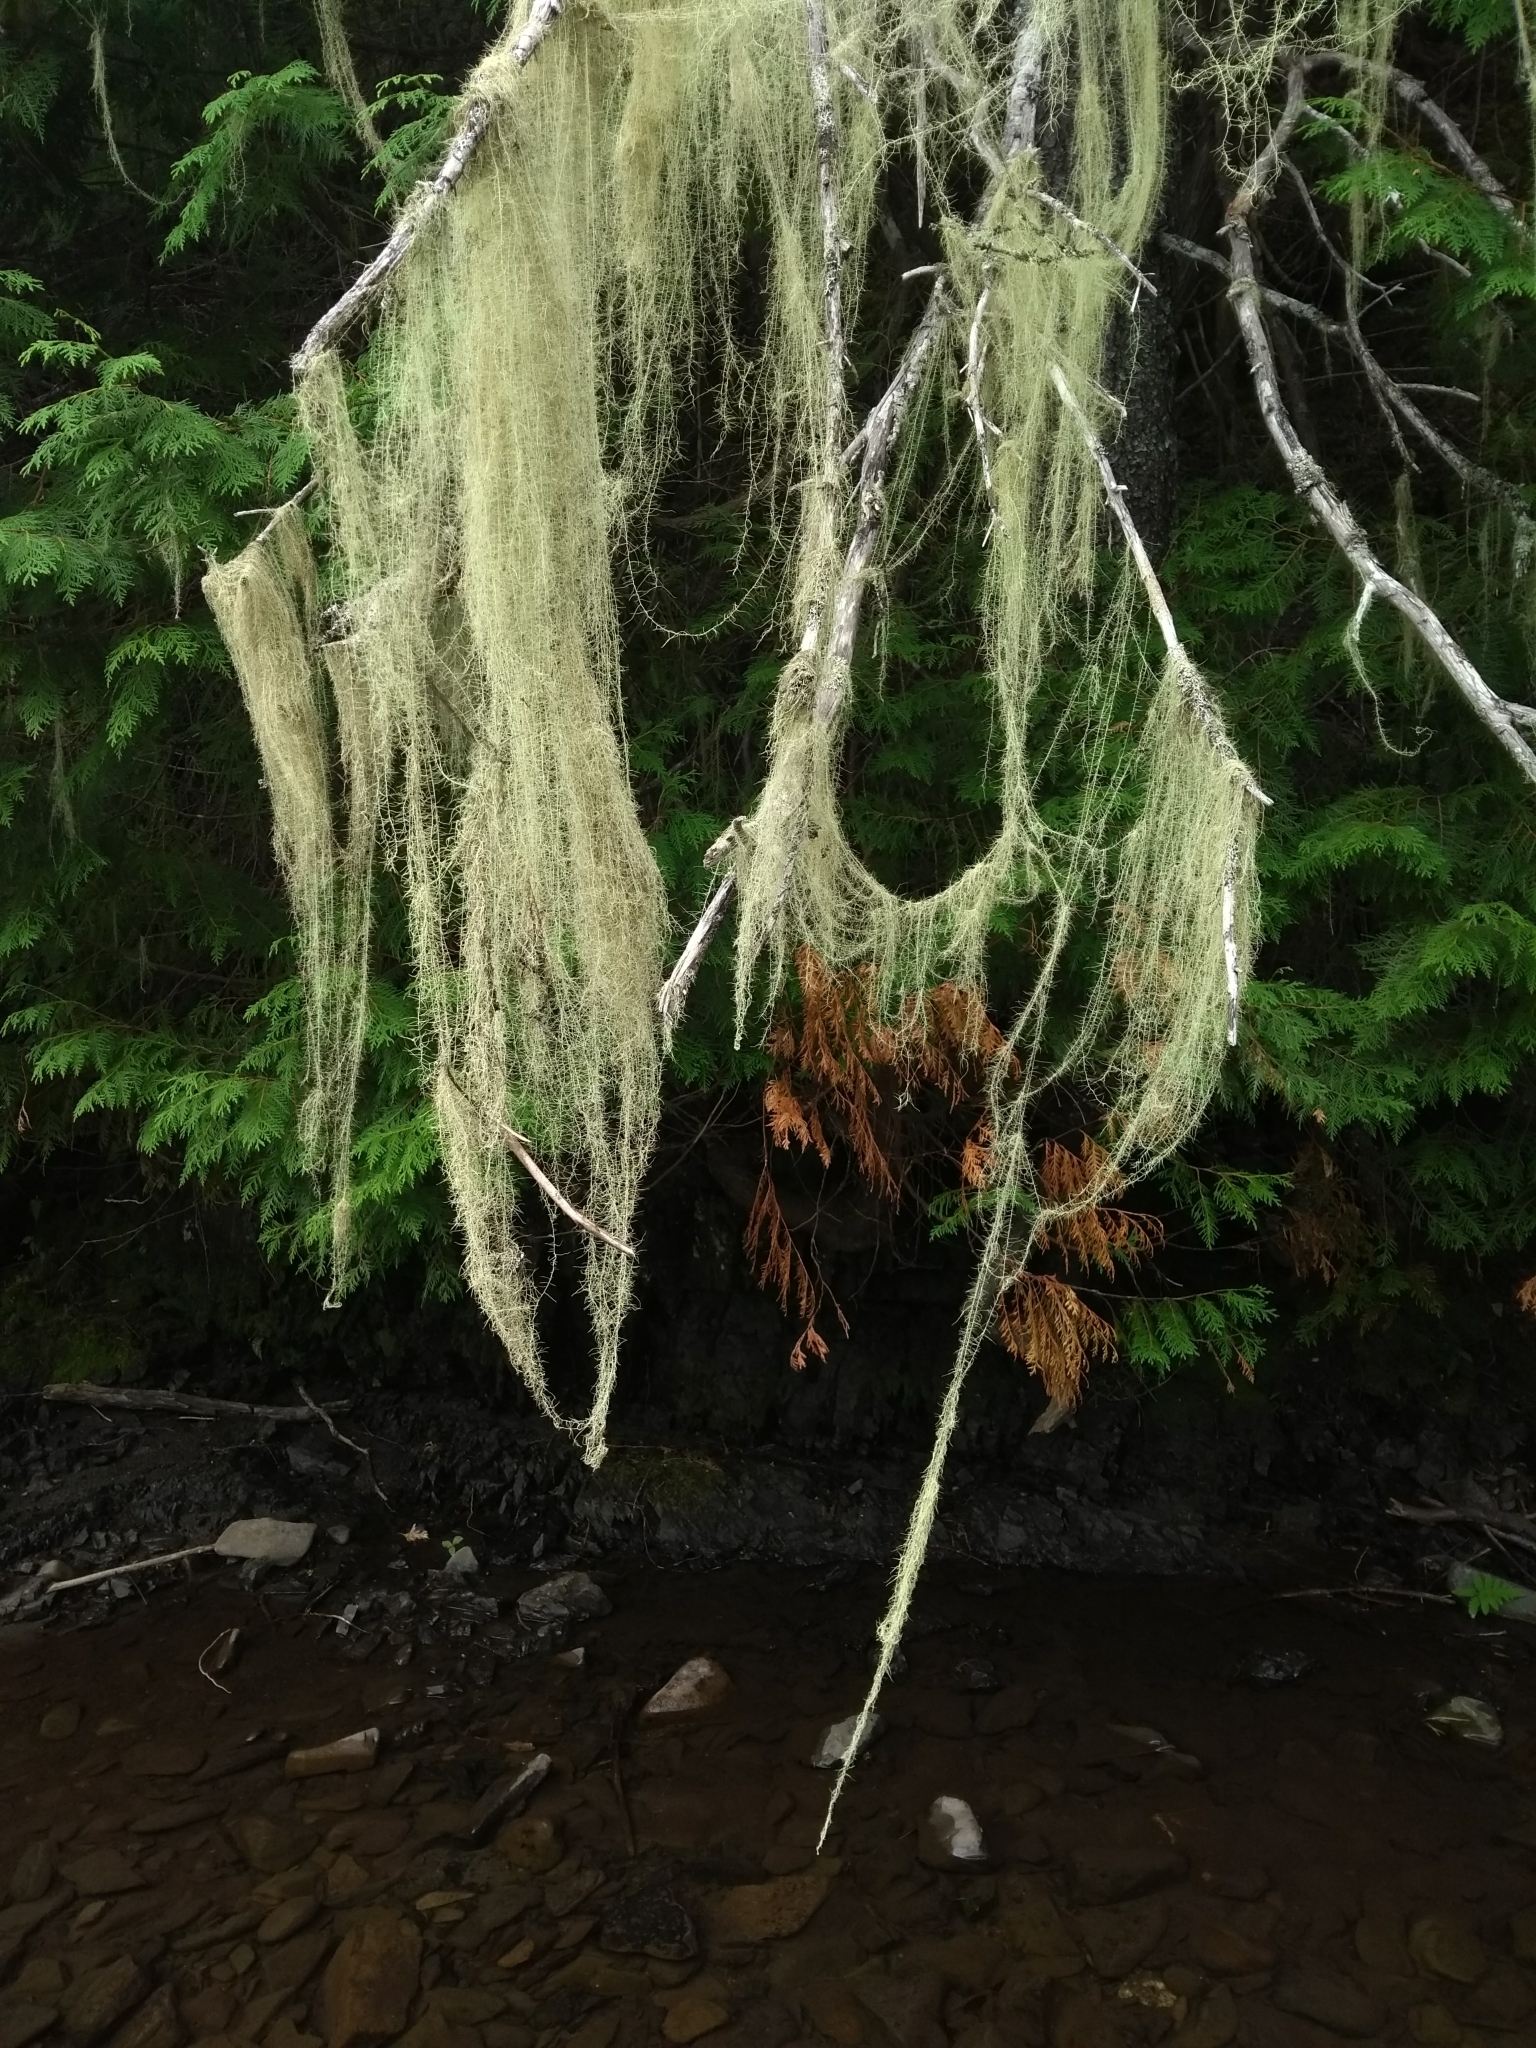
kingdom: Fungi
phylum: Ascomycota
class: Lecanoromycetes
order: Lecanorales
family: Parmeliaceae
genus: Dolichousnea
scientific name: Dolichousnea longissima
